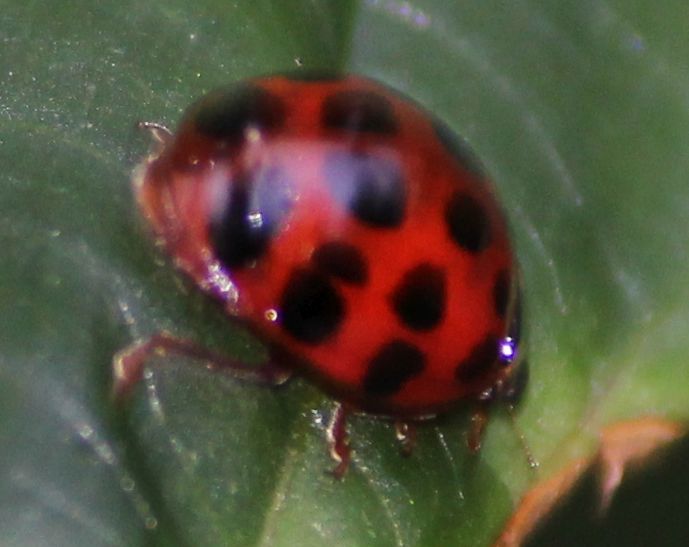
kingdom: Animalia
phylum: Arthropoda
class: Insecta
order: Coleoptera
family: Coccinellidae
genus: Harmonia
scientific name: Harmonia axyridis
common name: Harlequin ladybird
